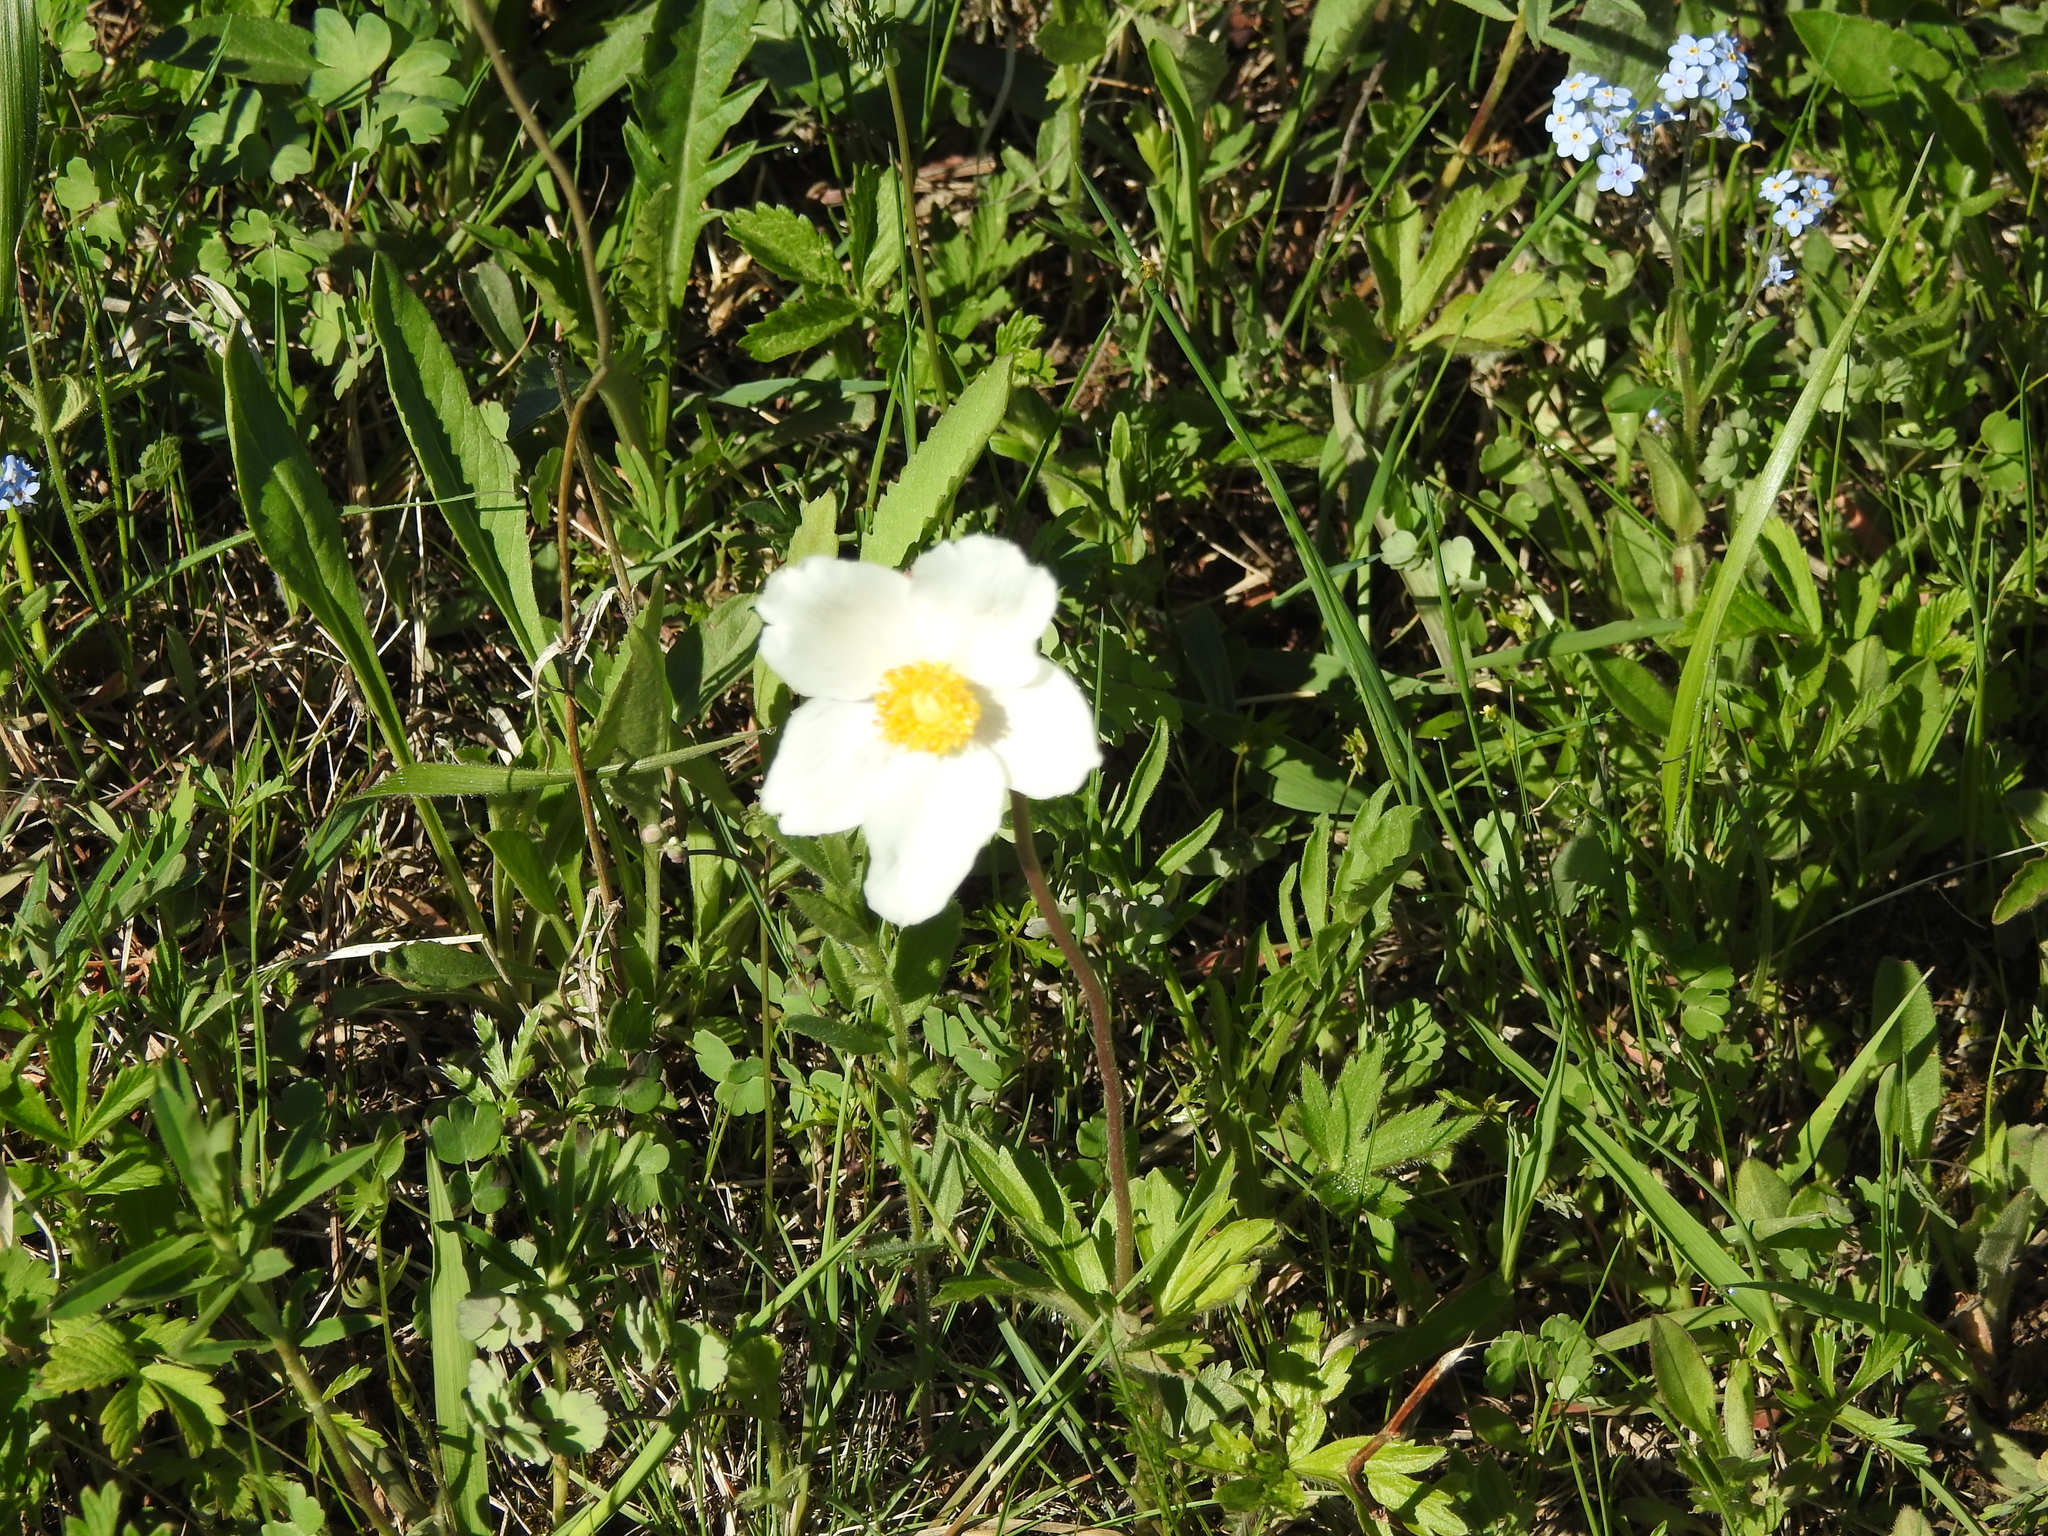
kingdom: Plantae
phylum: Tracheophyta
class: Magnoliopsida
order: Ranunculales
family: Ranunculaceae
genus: Anemone
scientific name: Anemone sylvestris
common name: Snowdrop anemone
